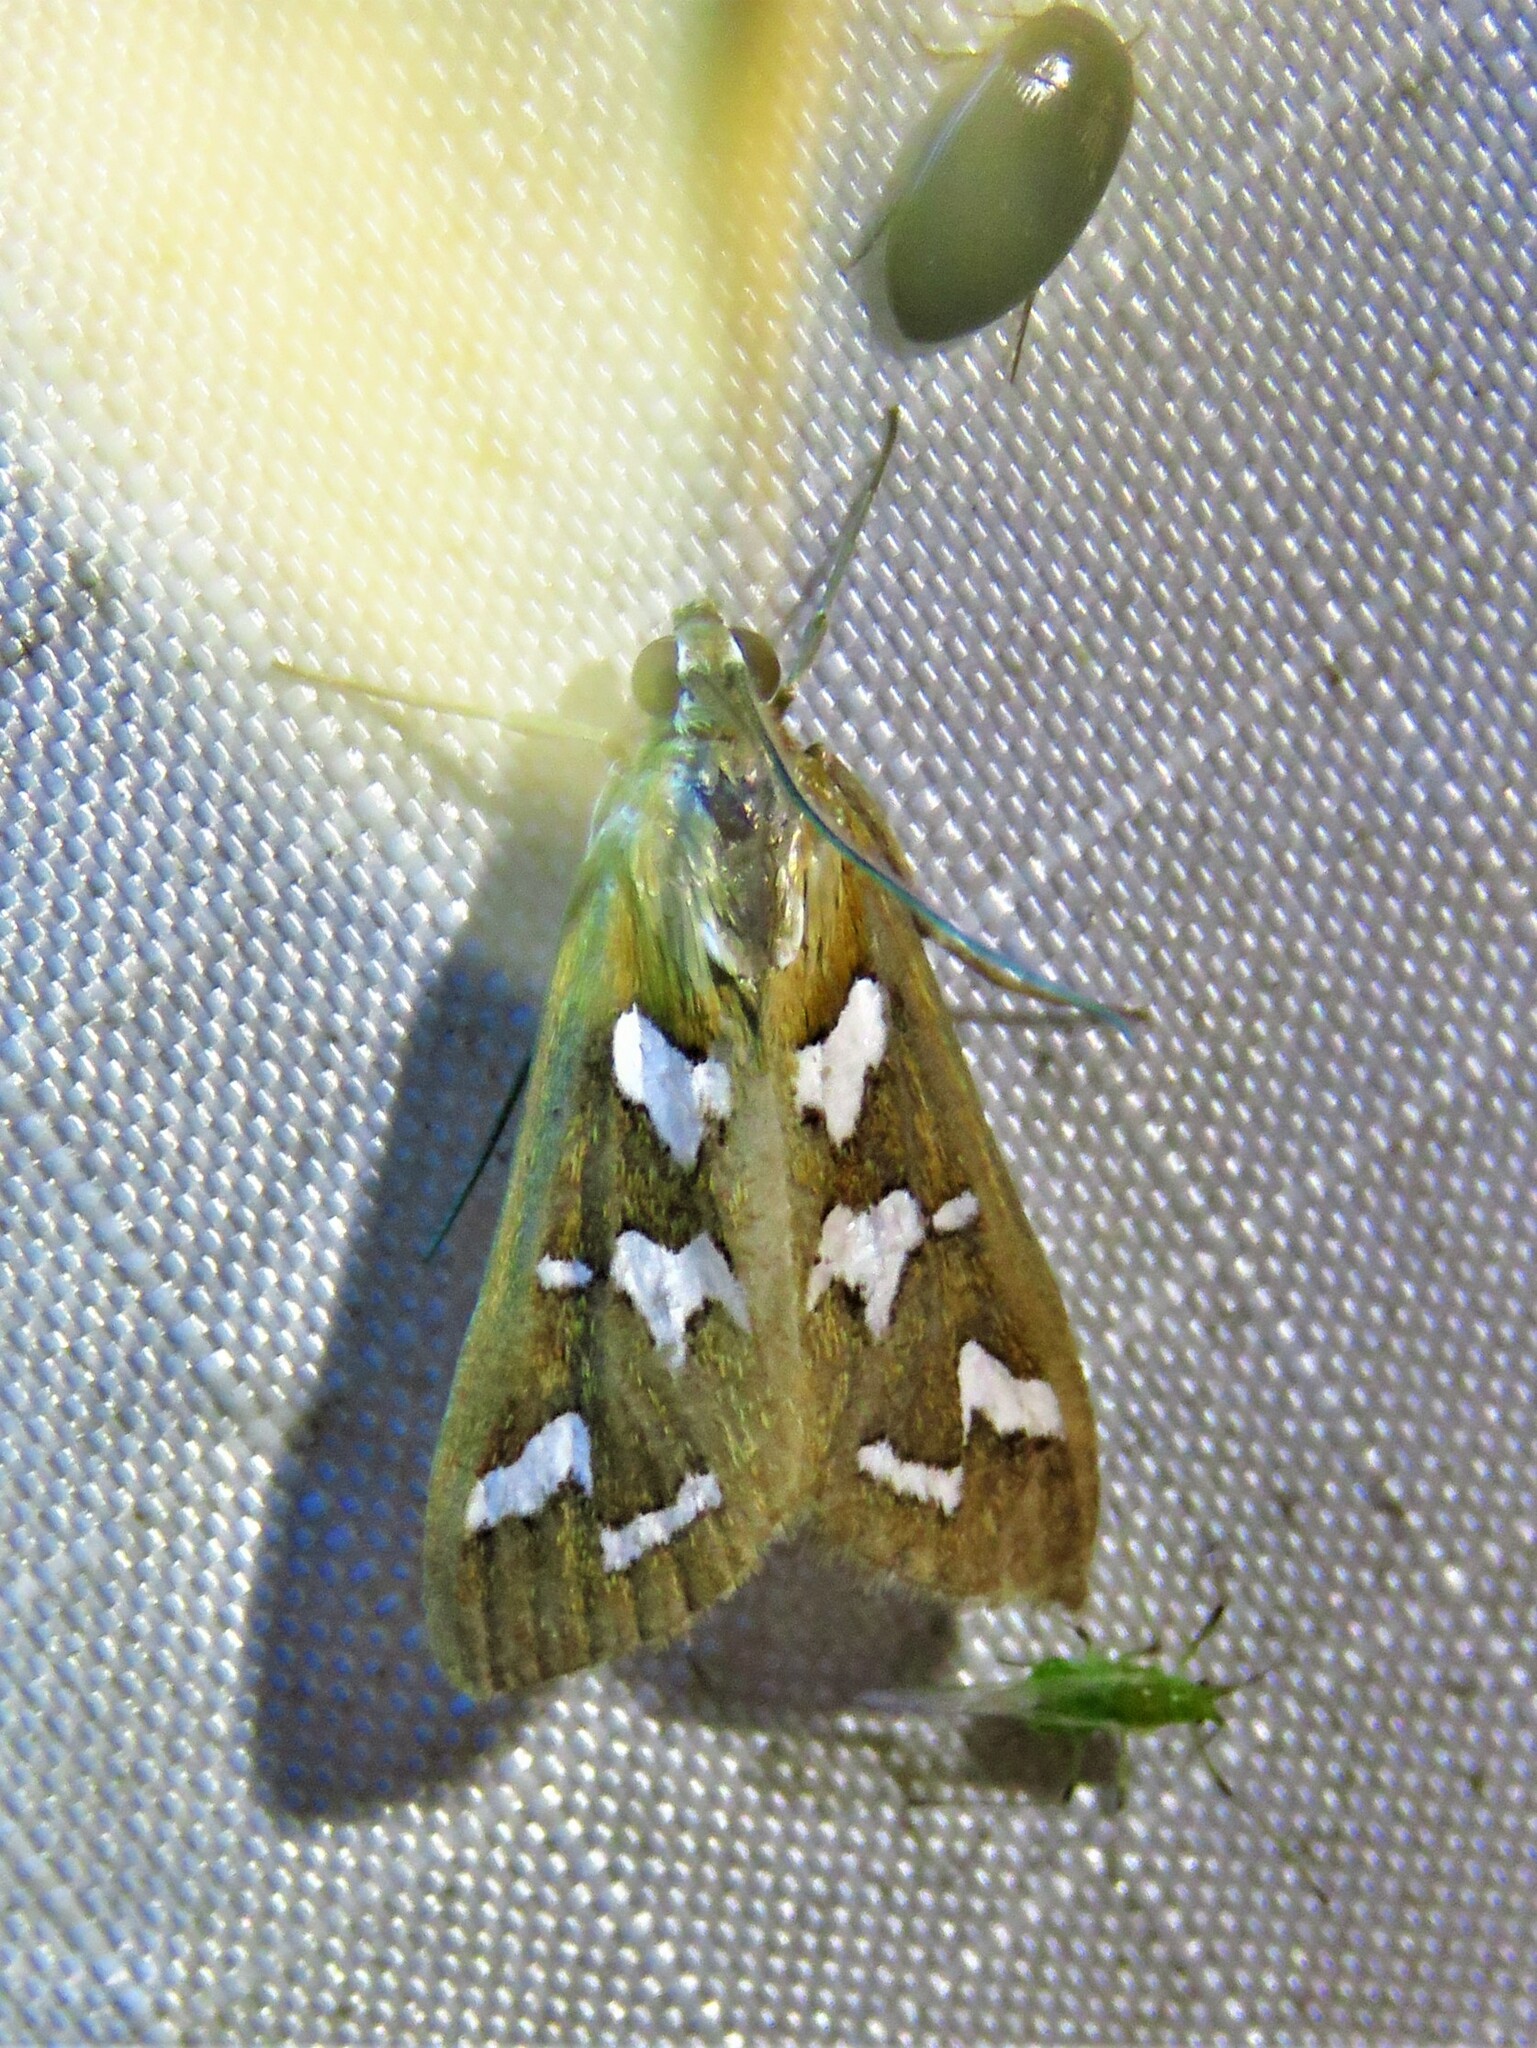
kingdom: Animalia
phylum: Arthropoda
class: Insecta
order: Lepidoptera
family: Crambidae
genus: Diastictis
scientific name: Diastictis fracturalis
